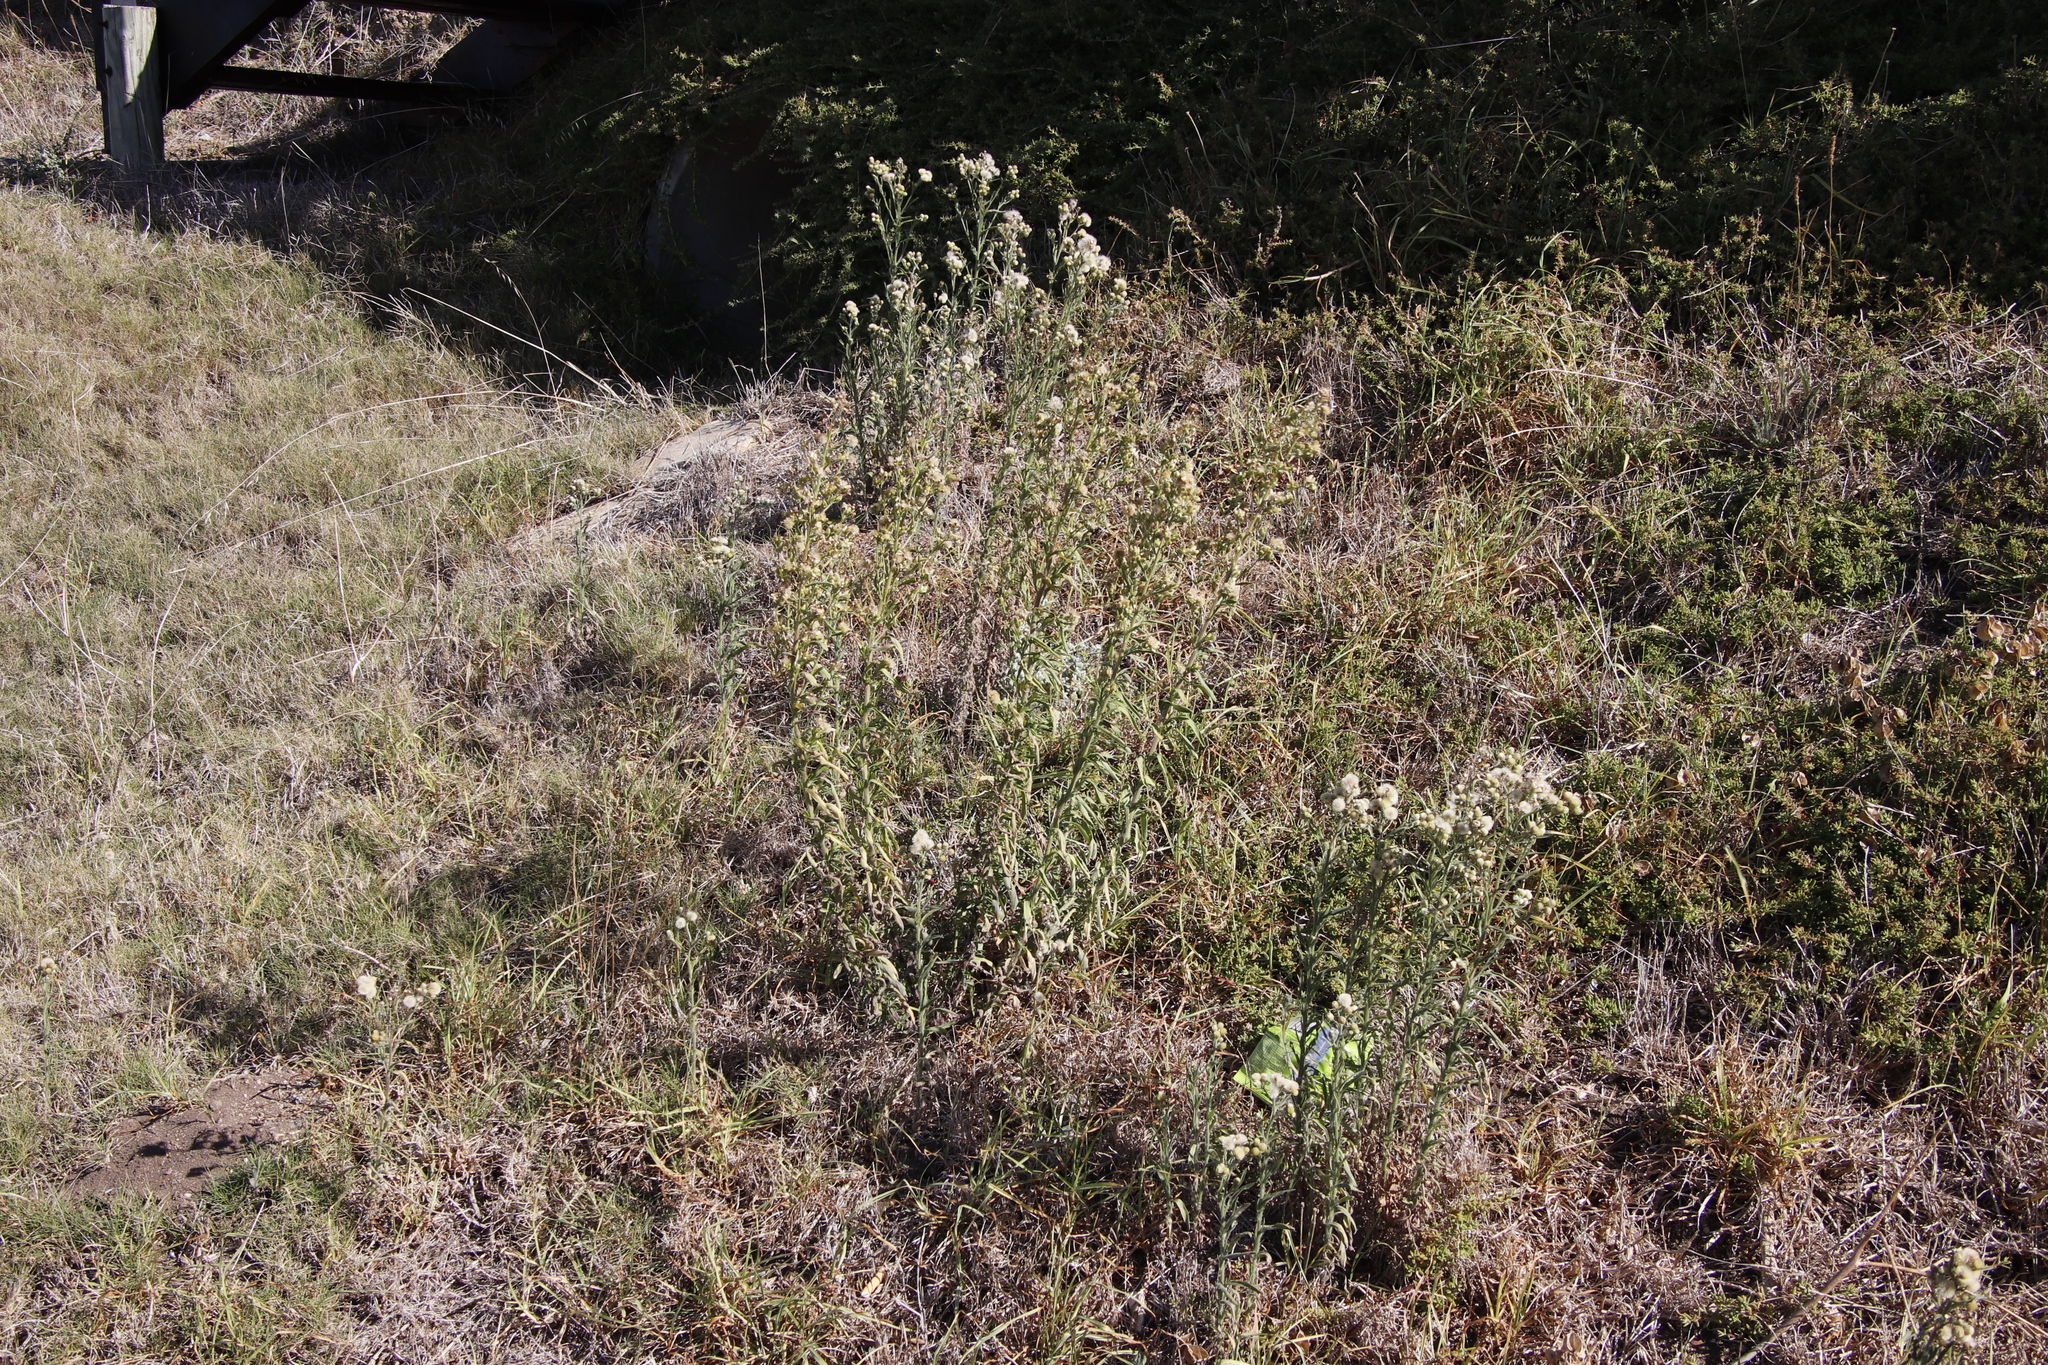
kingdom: Plantae
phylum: Tracheophyta
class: Magnoliopsida
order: Asterales
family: Asteraceae
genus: Erigeron
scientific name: Erigeron bonariensis
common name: Argentine fleabane
